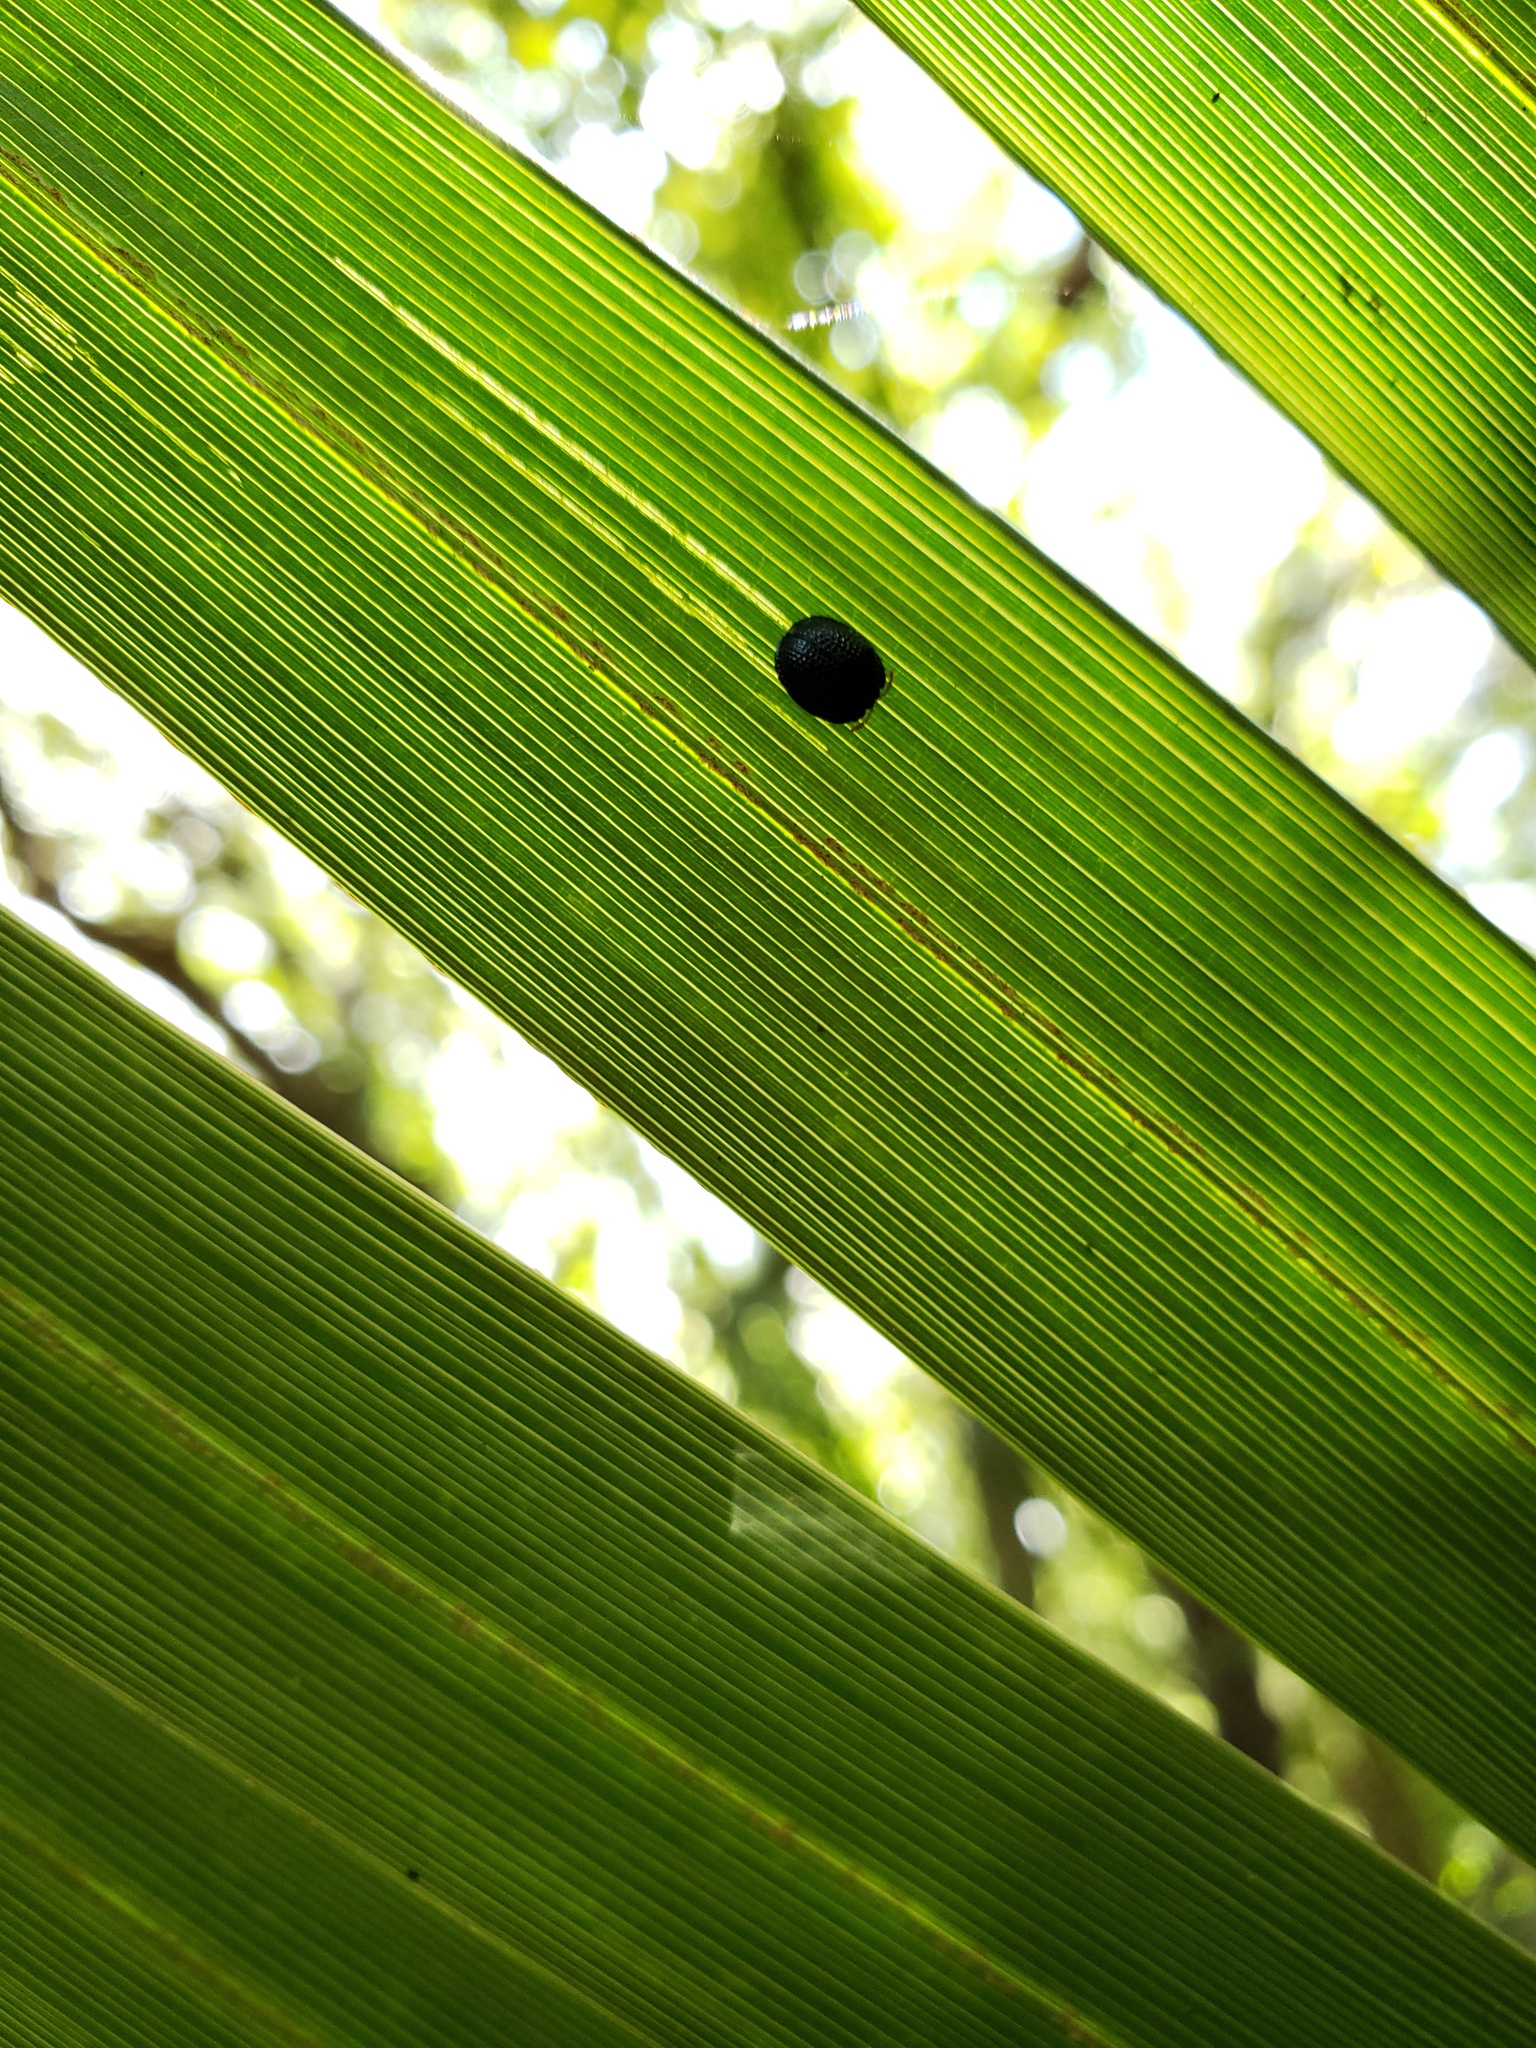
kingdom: Animalia
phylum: Arthropoda
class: Insecta
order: Coleoptera
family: Chrysomelidae
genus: Hemisphaerota
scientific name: Hemisphaerota cyanea
